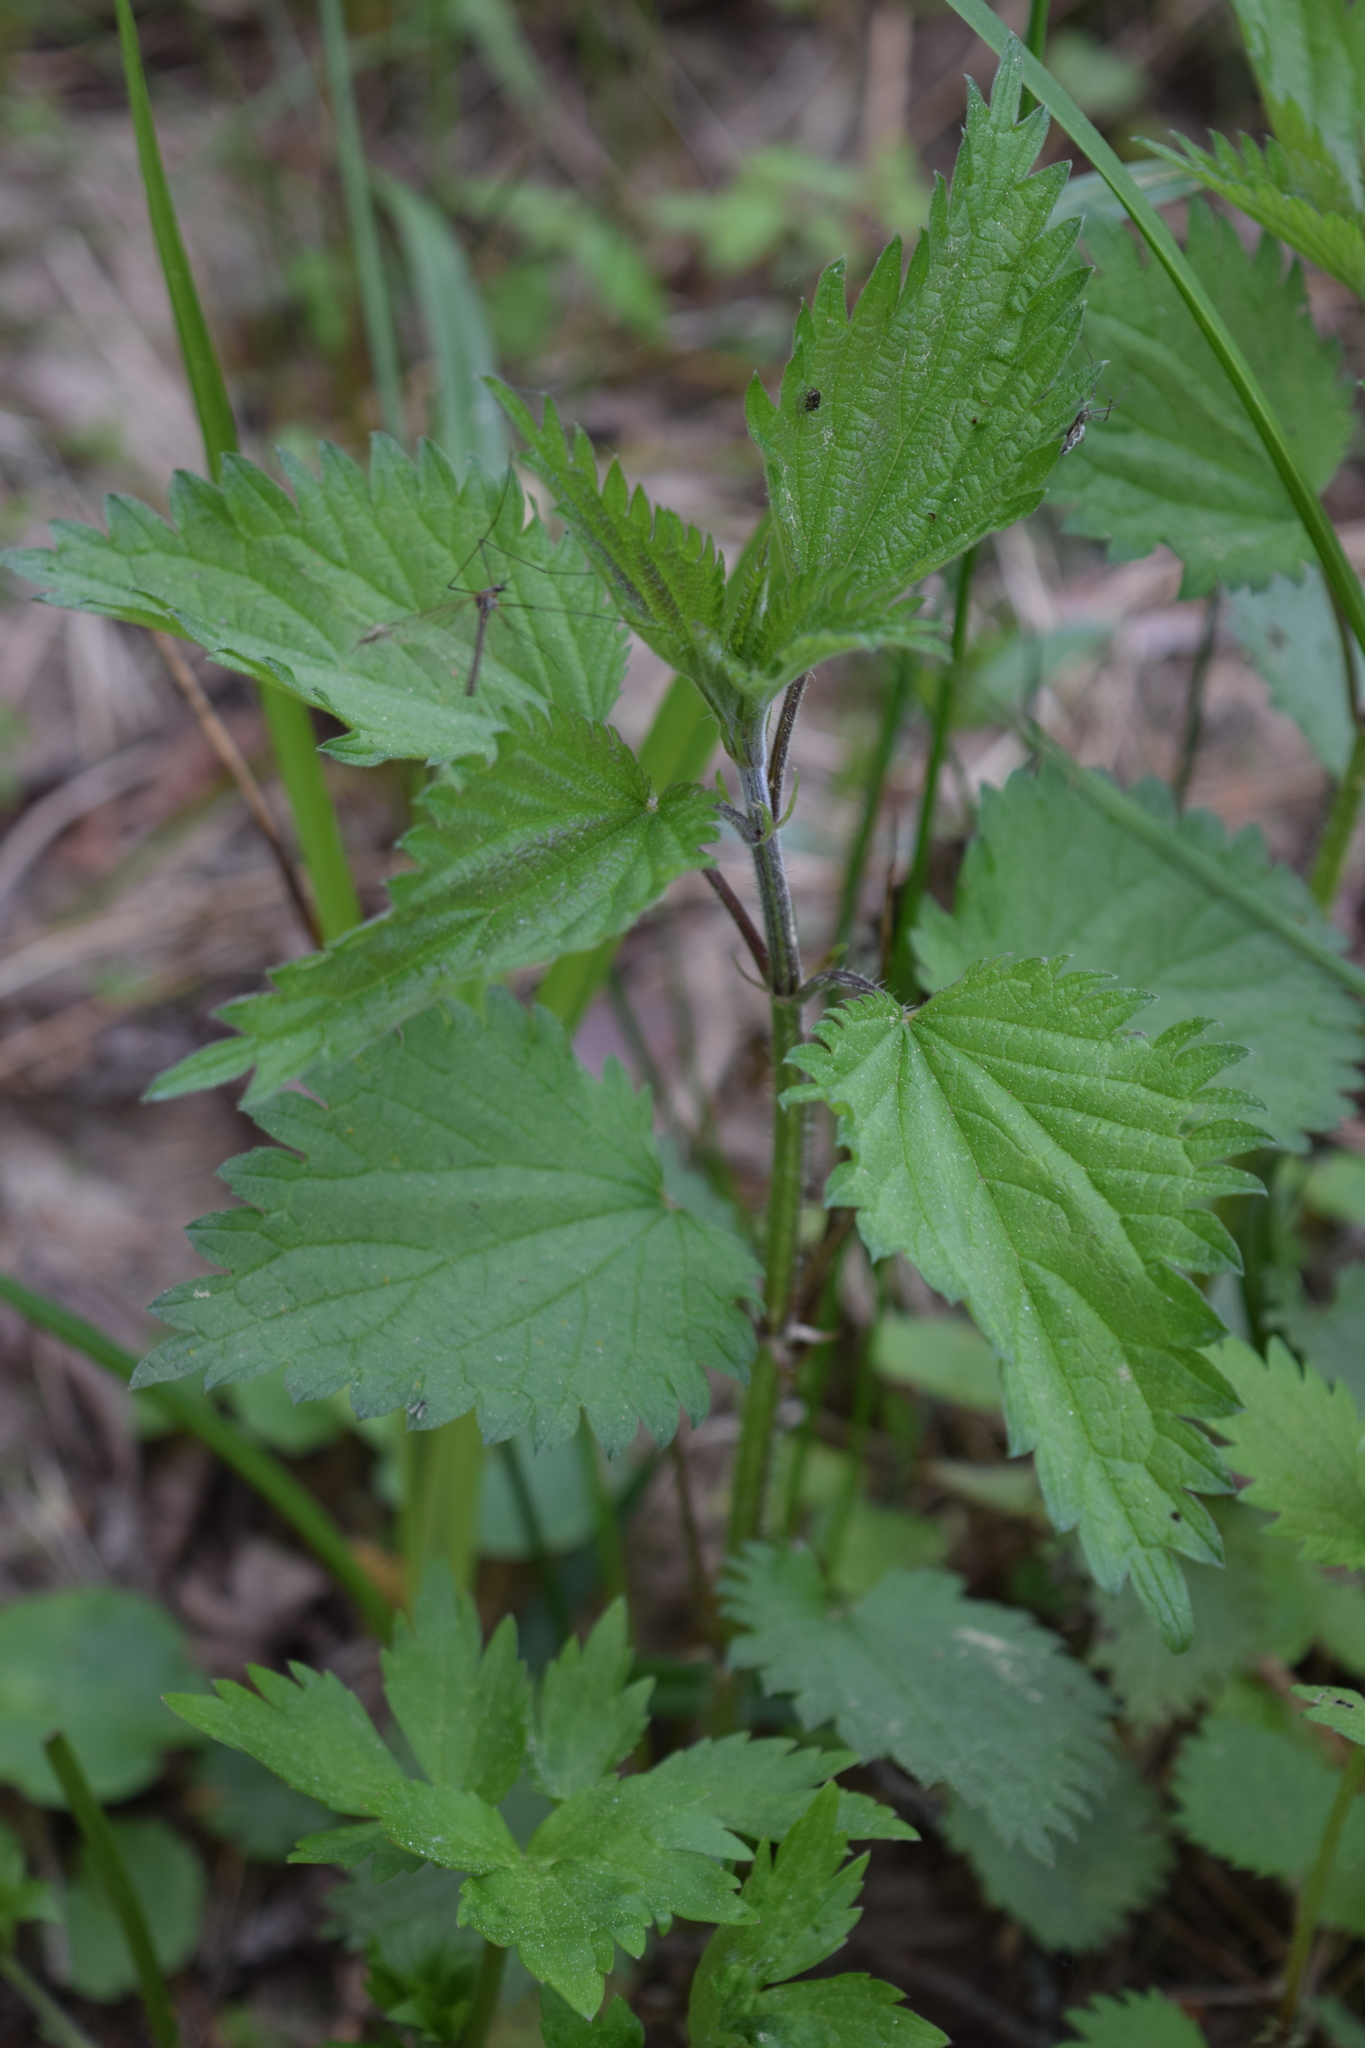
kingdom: Plantae
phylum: Tracheophyta
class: Magnoliopsida
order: Rosales
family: Urticaceae
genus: Urtica
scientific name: Urtica dioica
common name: Common nettle
